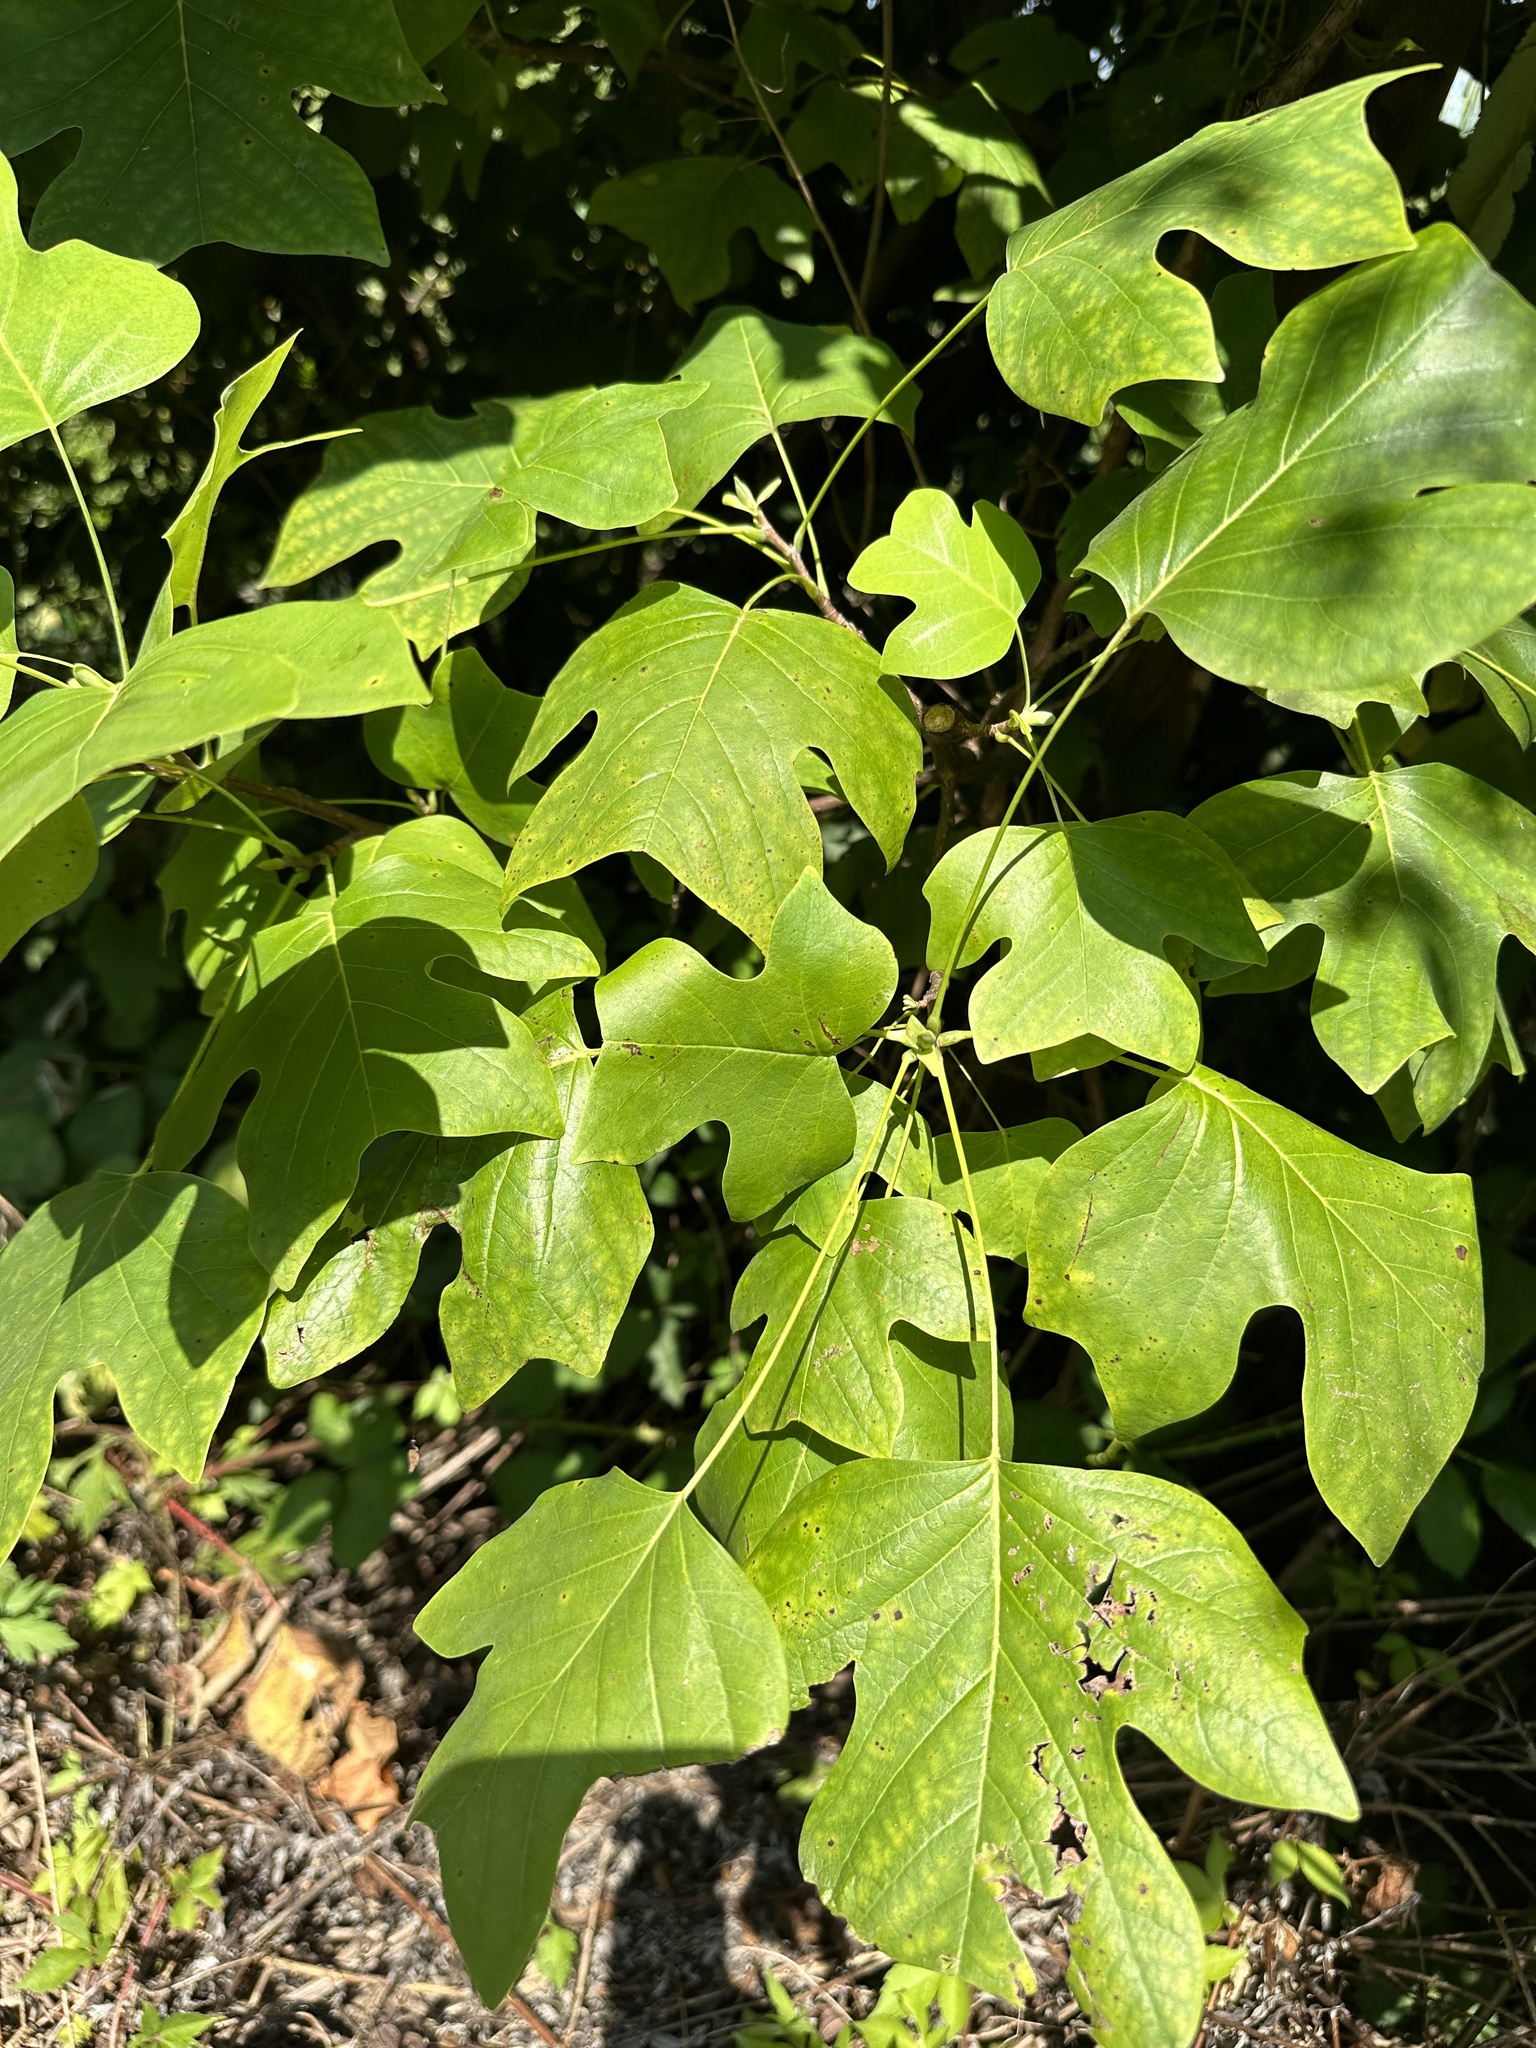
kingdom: Plantae
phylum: Tracheophyta
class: Magnoliopsida
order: Magnoliales
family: Magnoliaceae
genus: Liriodendron
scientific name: Liriodendron tulipifera
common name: Tulip tree
